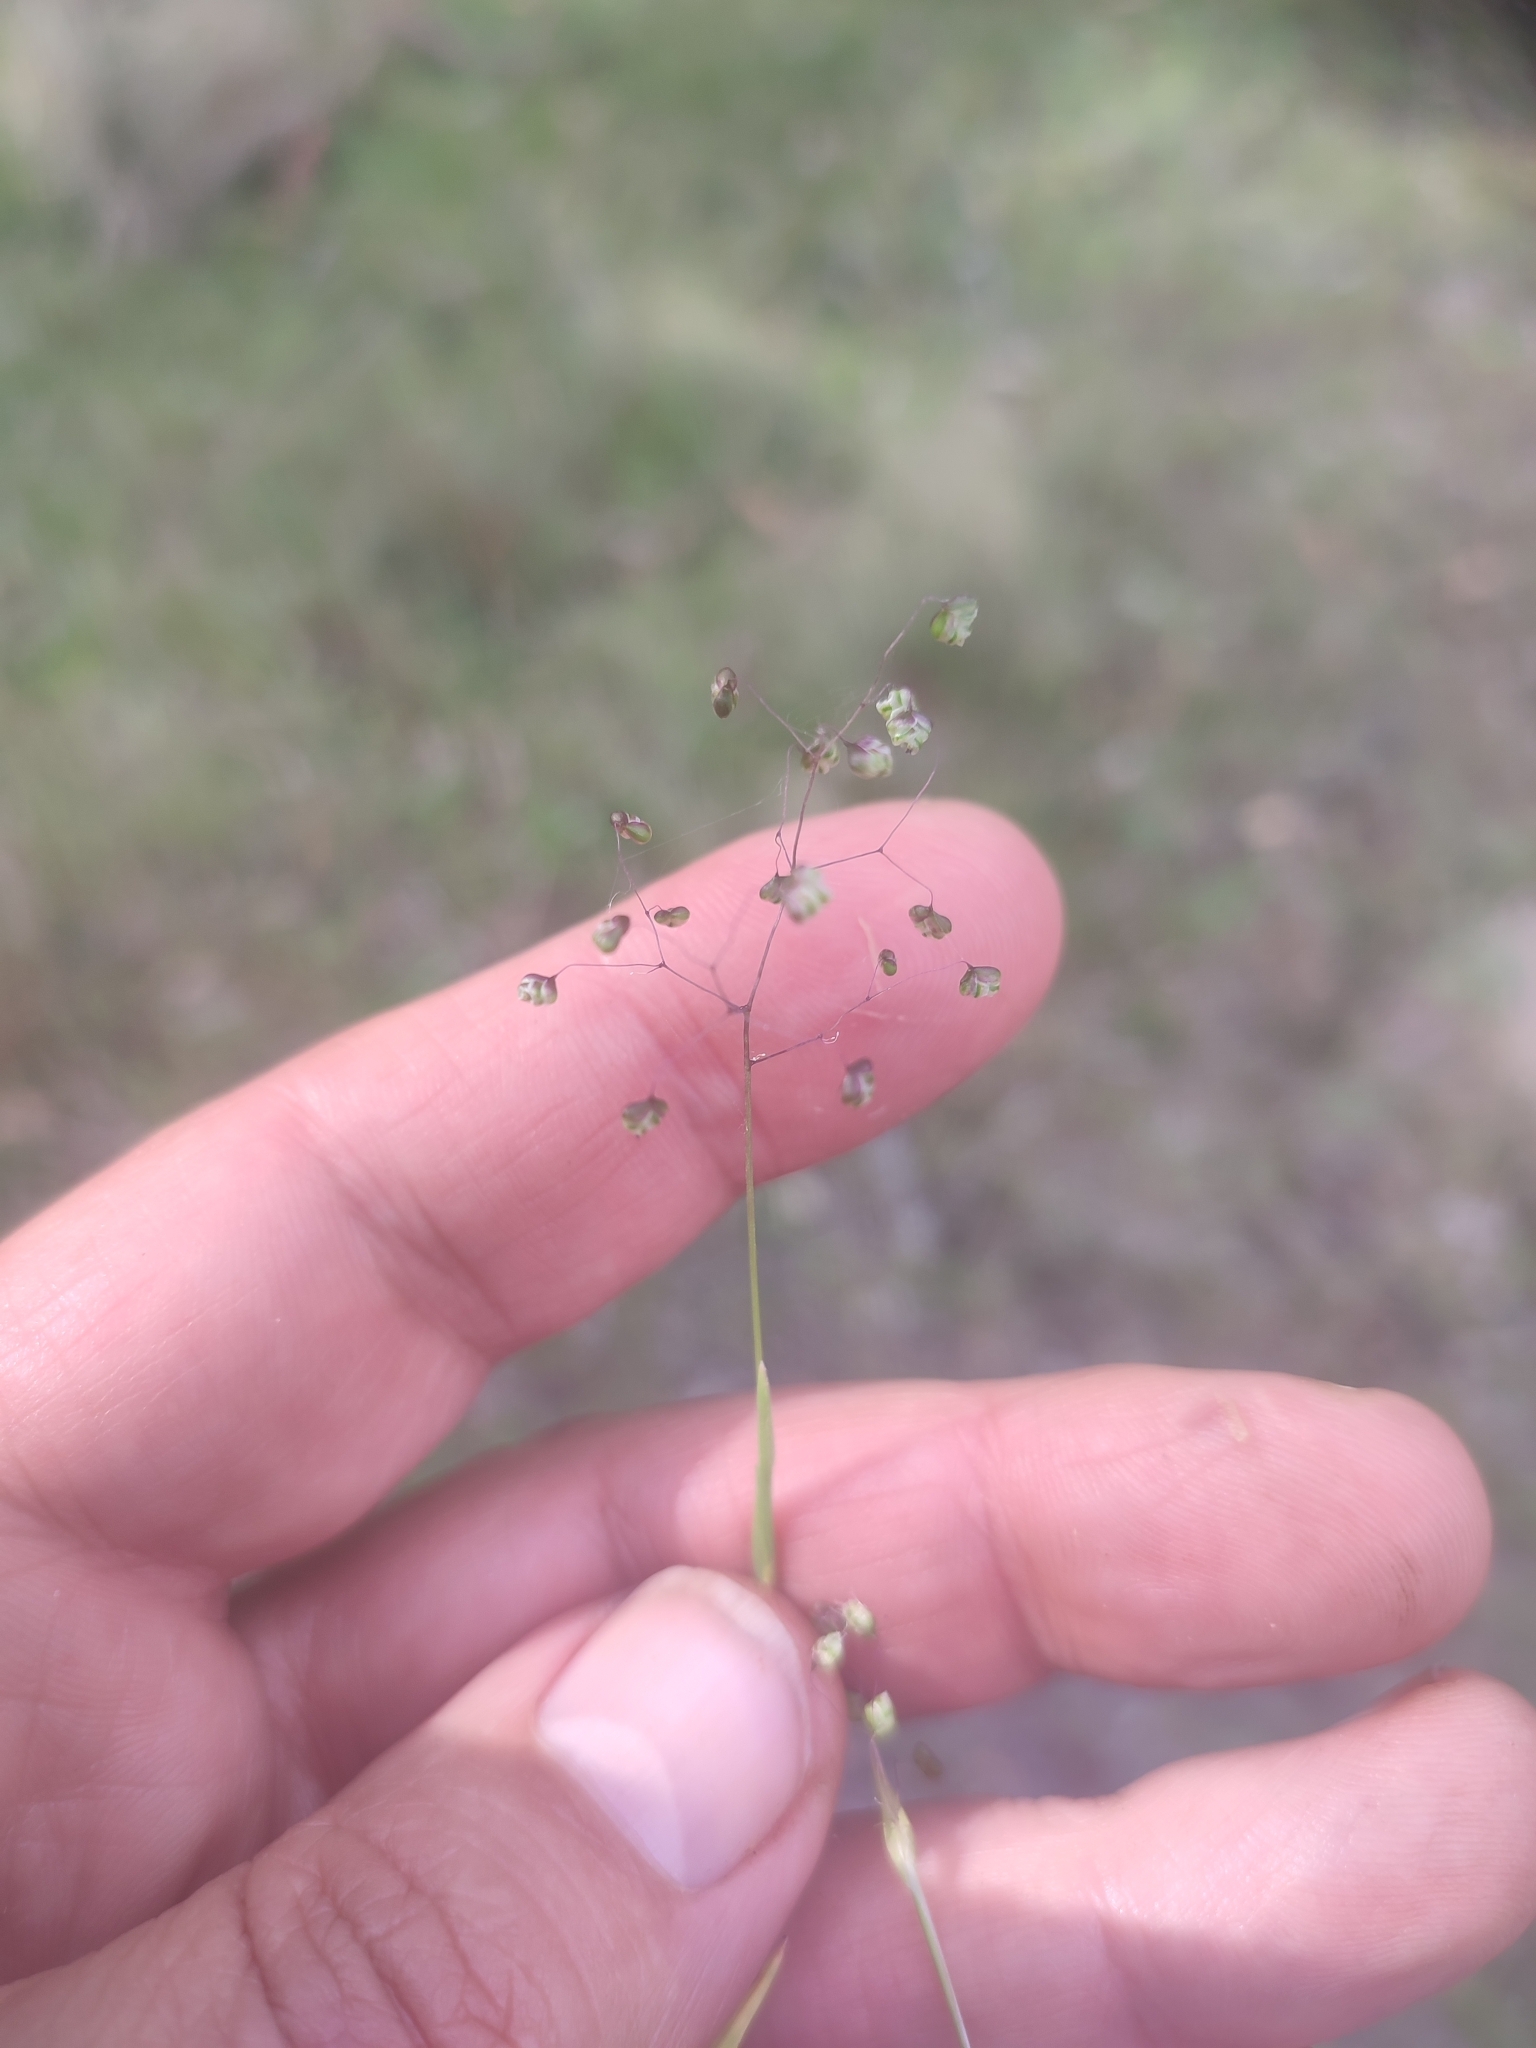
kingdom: Plantae
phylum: Tracheophyta
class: Liliopsida
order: Poales
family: Poaceae
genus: Briza
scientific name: Briza minor
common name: Lesser quaking-grass
